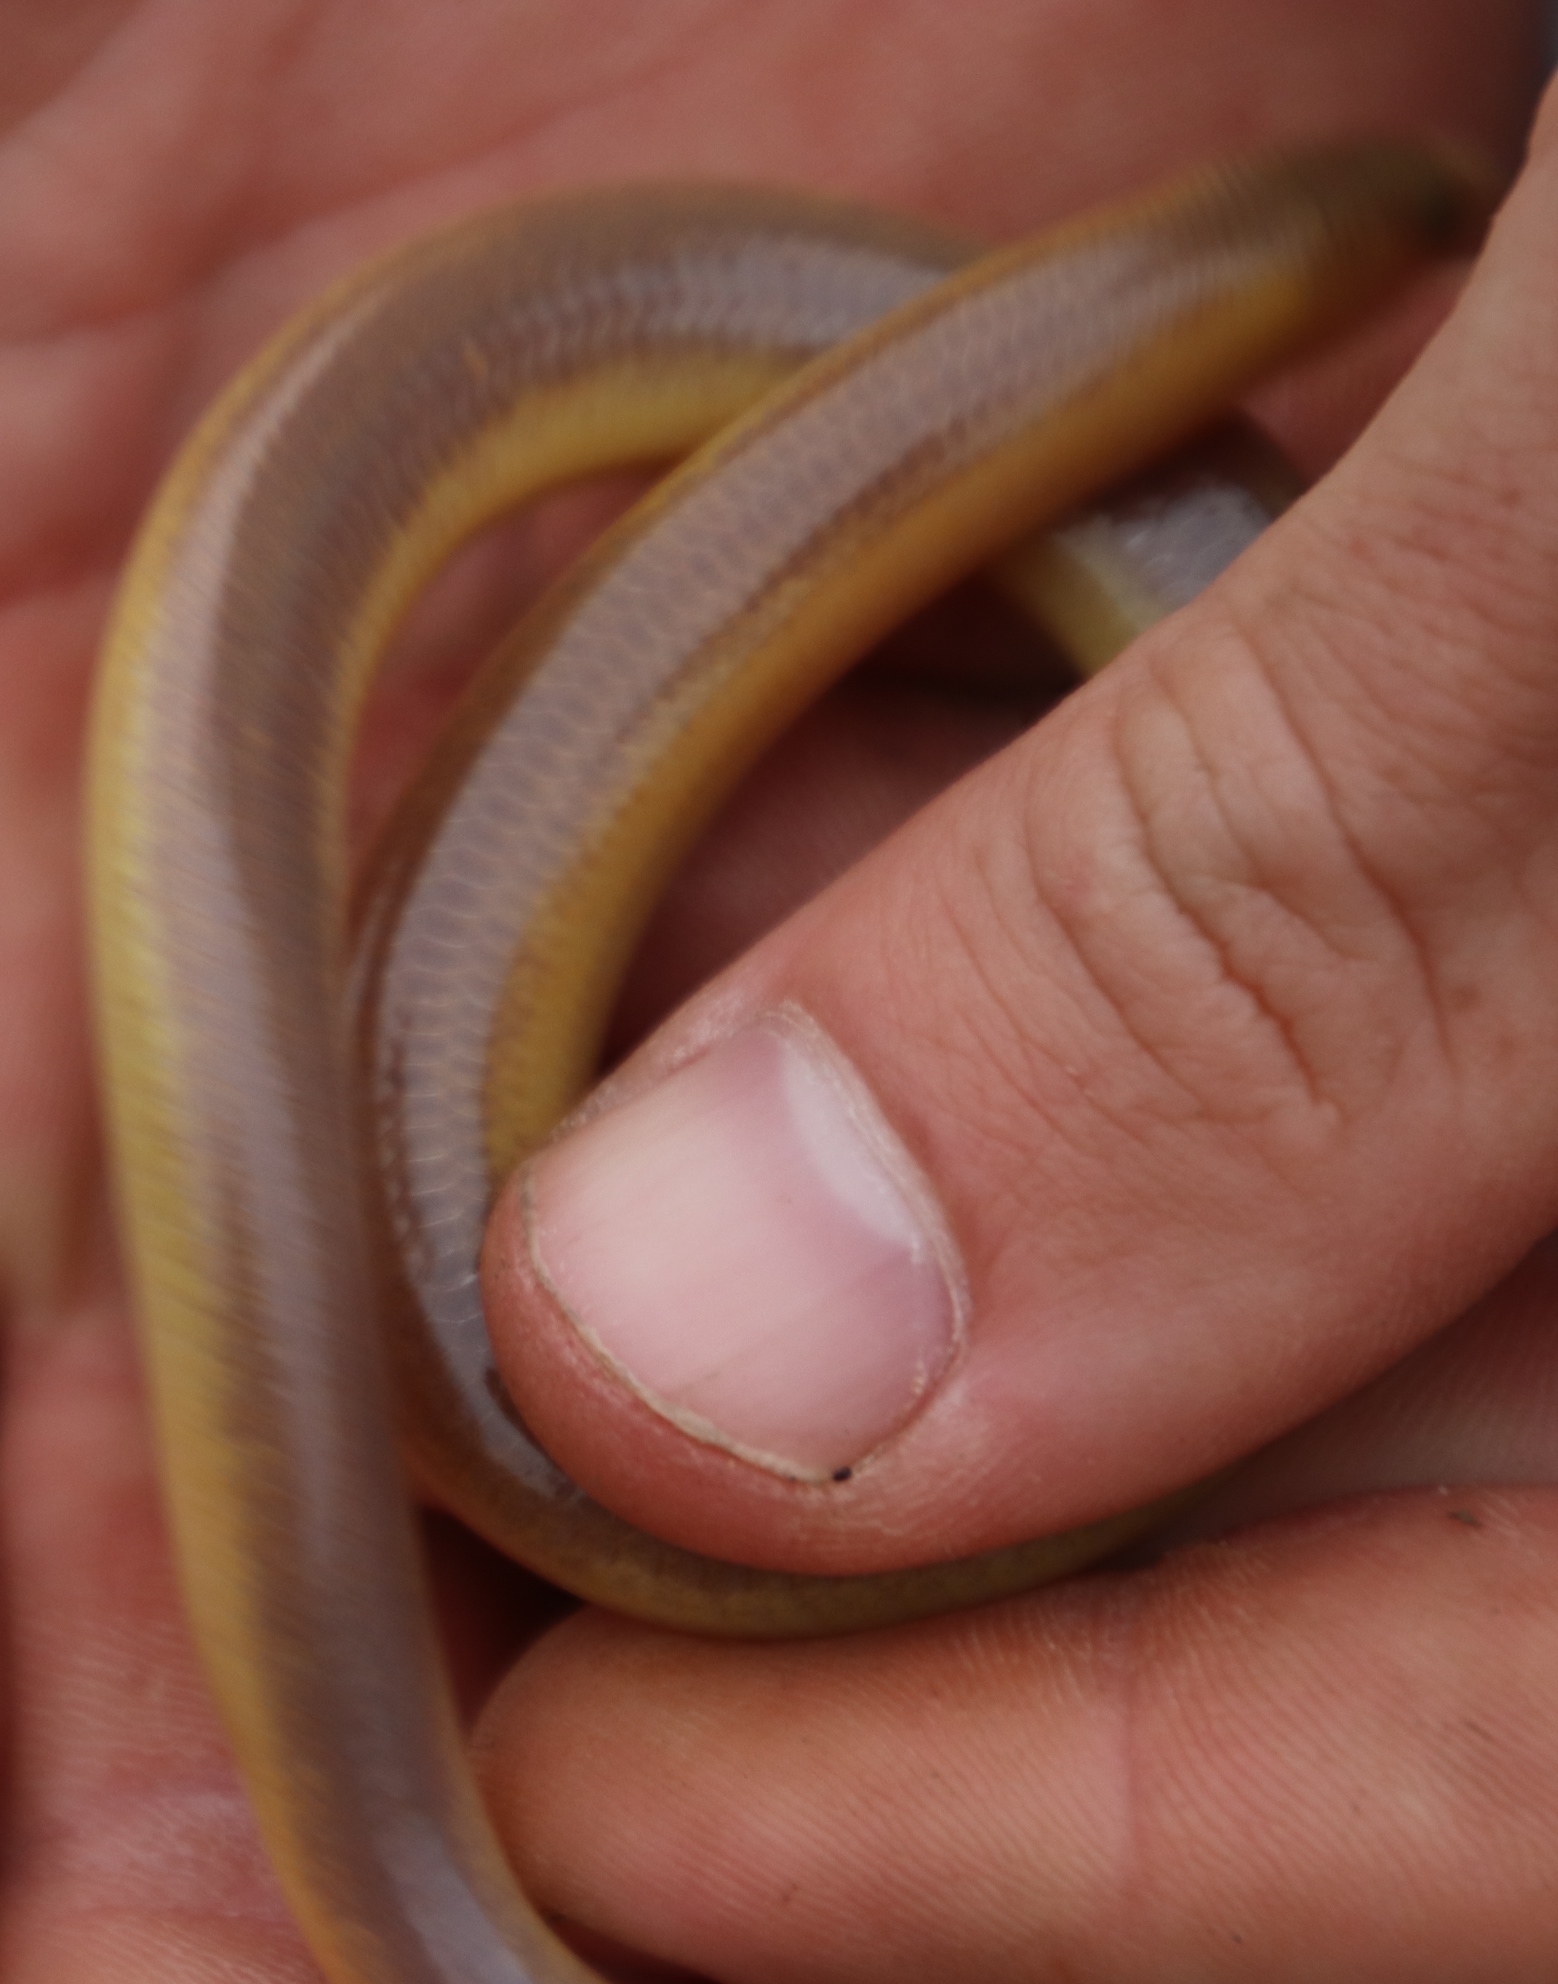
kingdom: Animalia
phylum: Chordata
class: Squamata
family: Scincidae
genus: Acontias
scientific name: Acontias meleagris
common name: Cape legless skink
